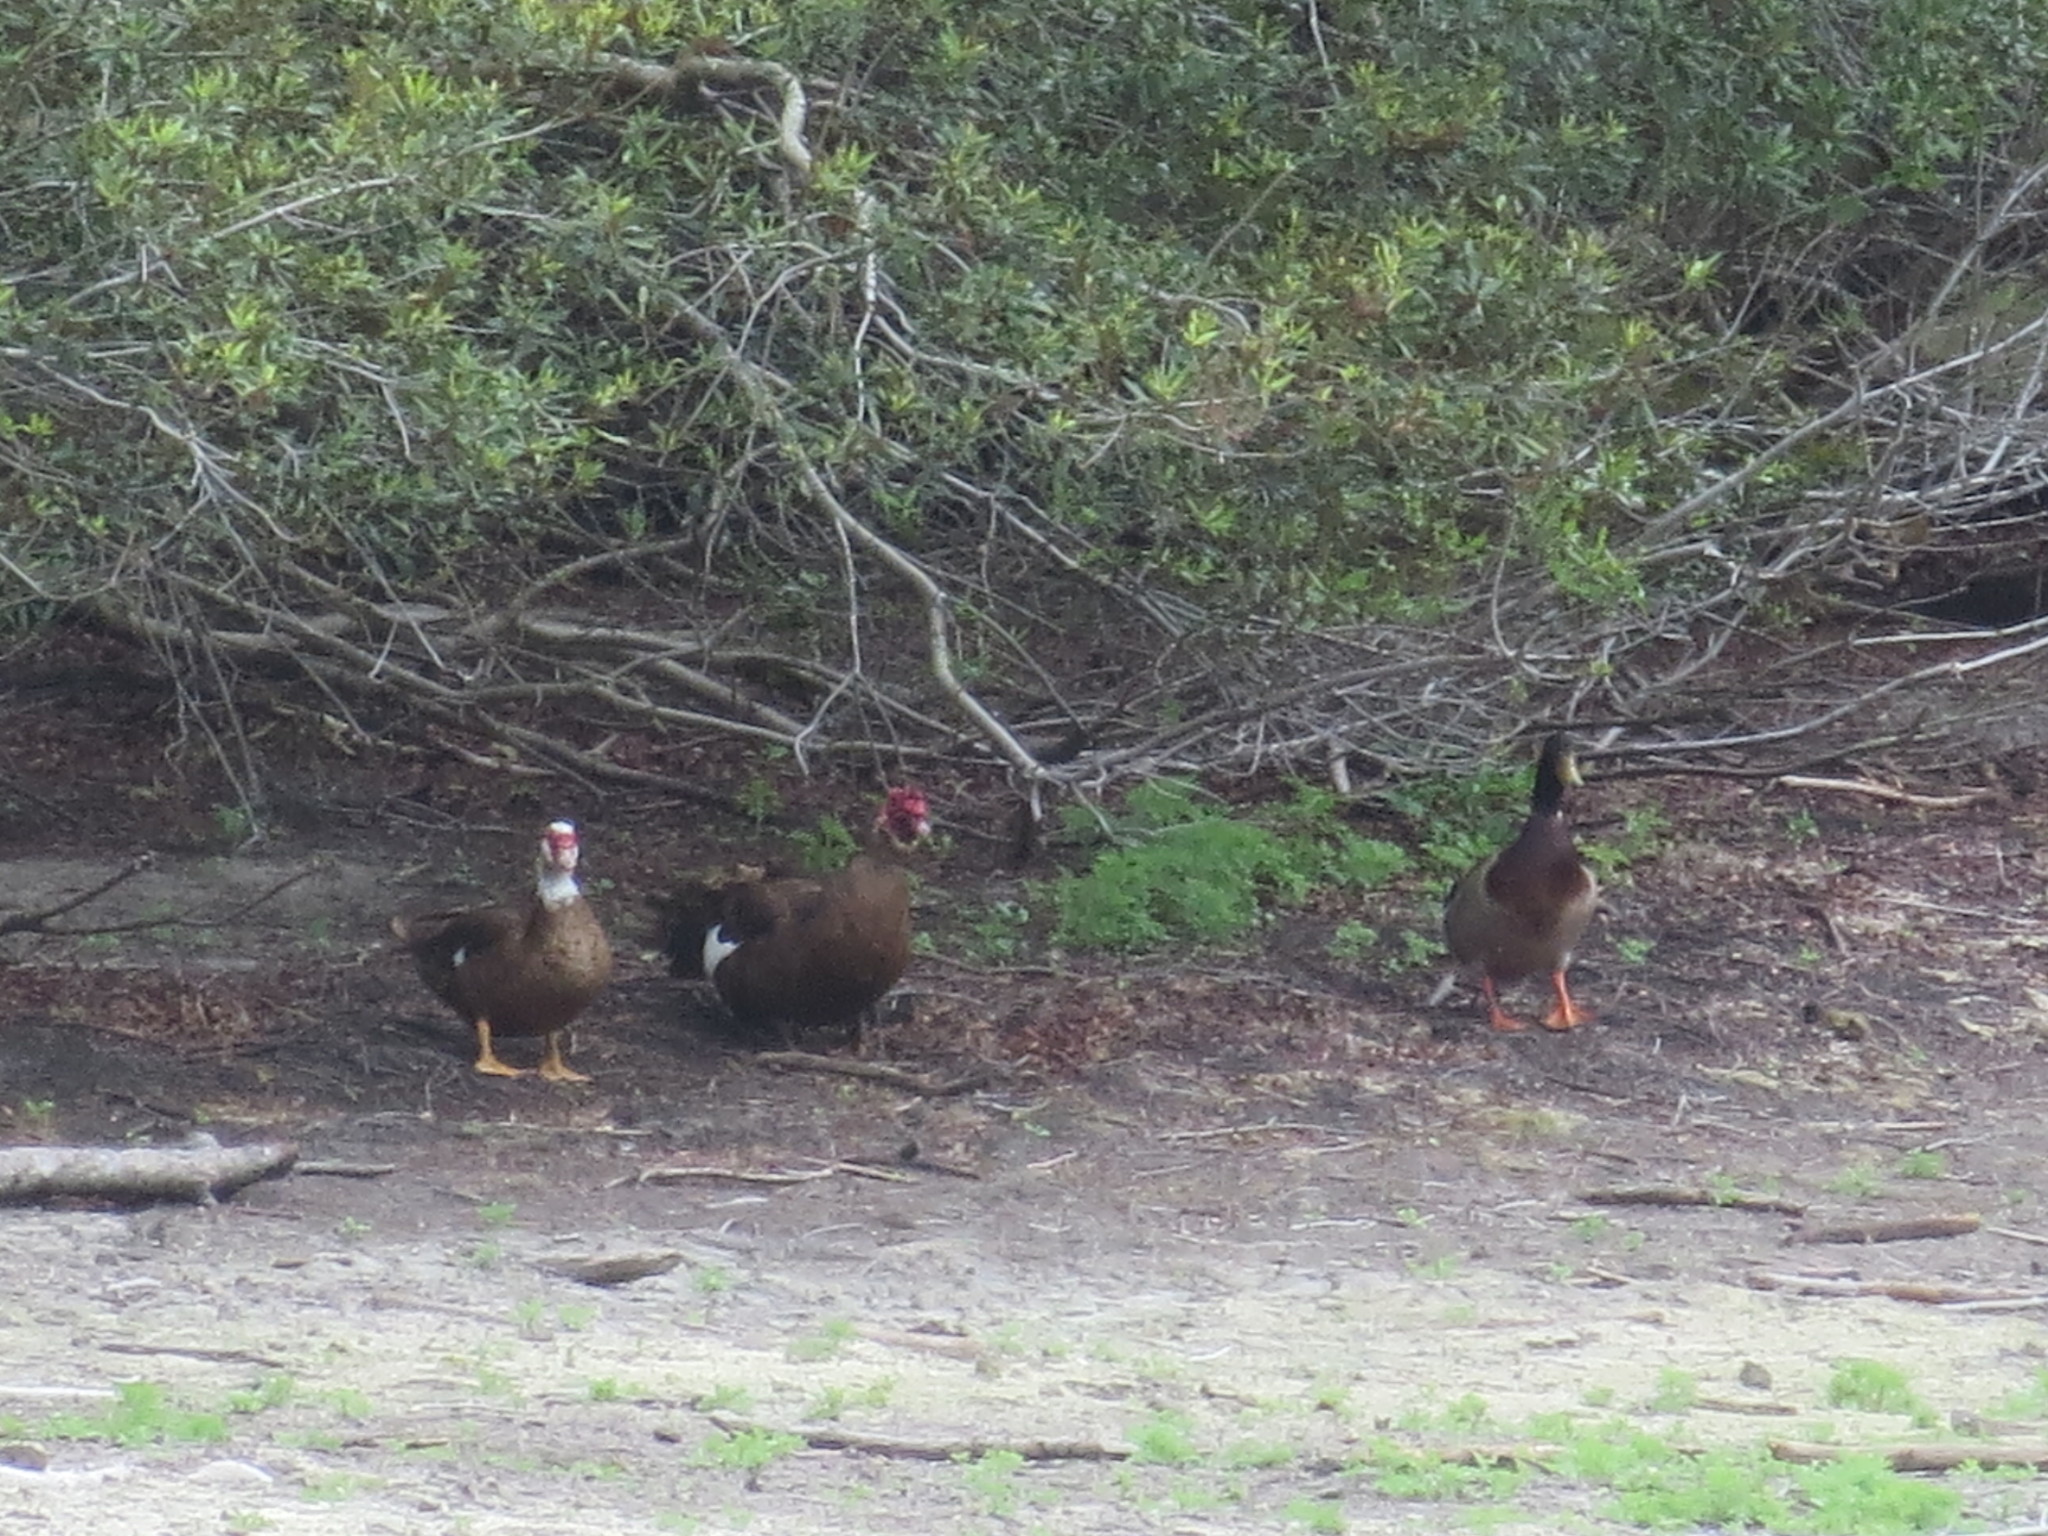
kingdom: Animalia
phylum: Chordata
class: Aves
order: Anseriformes
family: Anatidae
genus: Cairina
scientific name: Cairina moschata
